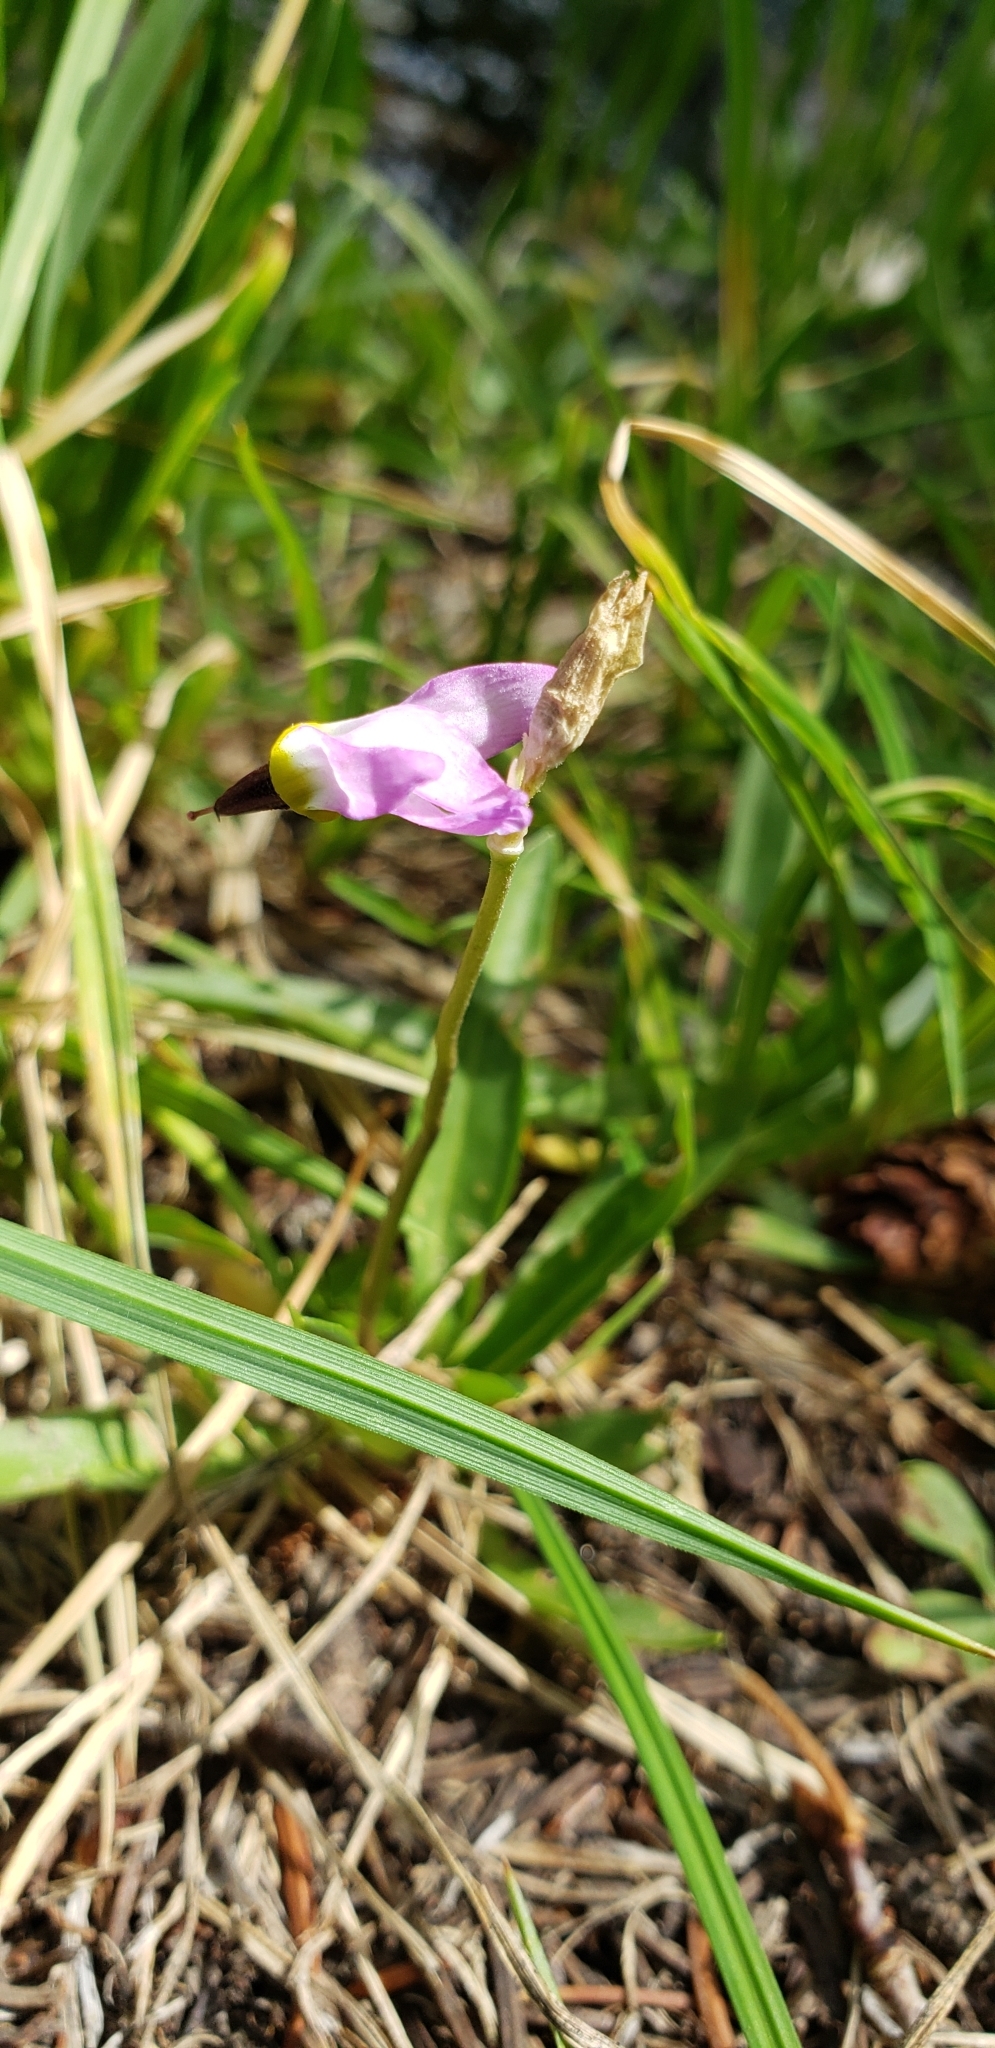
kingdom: Plantae
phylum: Tracheophyta
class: Magnoliopsida
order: Ericales
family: Primulaceae
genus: Dodecatheon
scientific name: Dodecatheon alpinum
